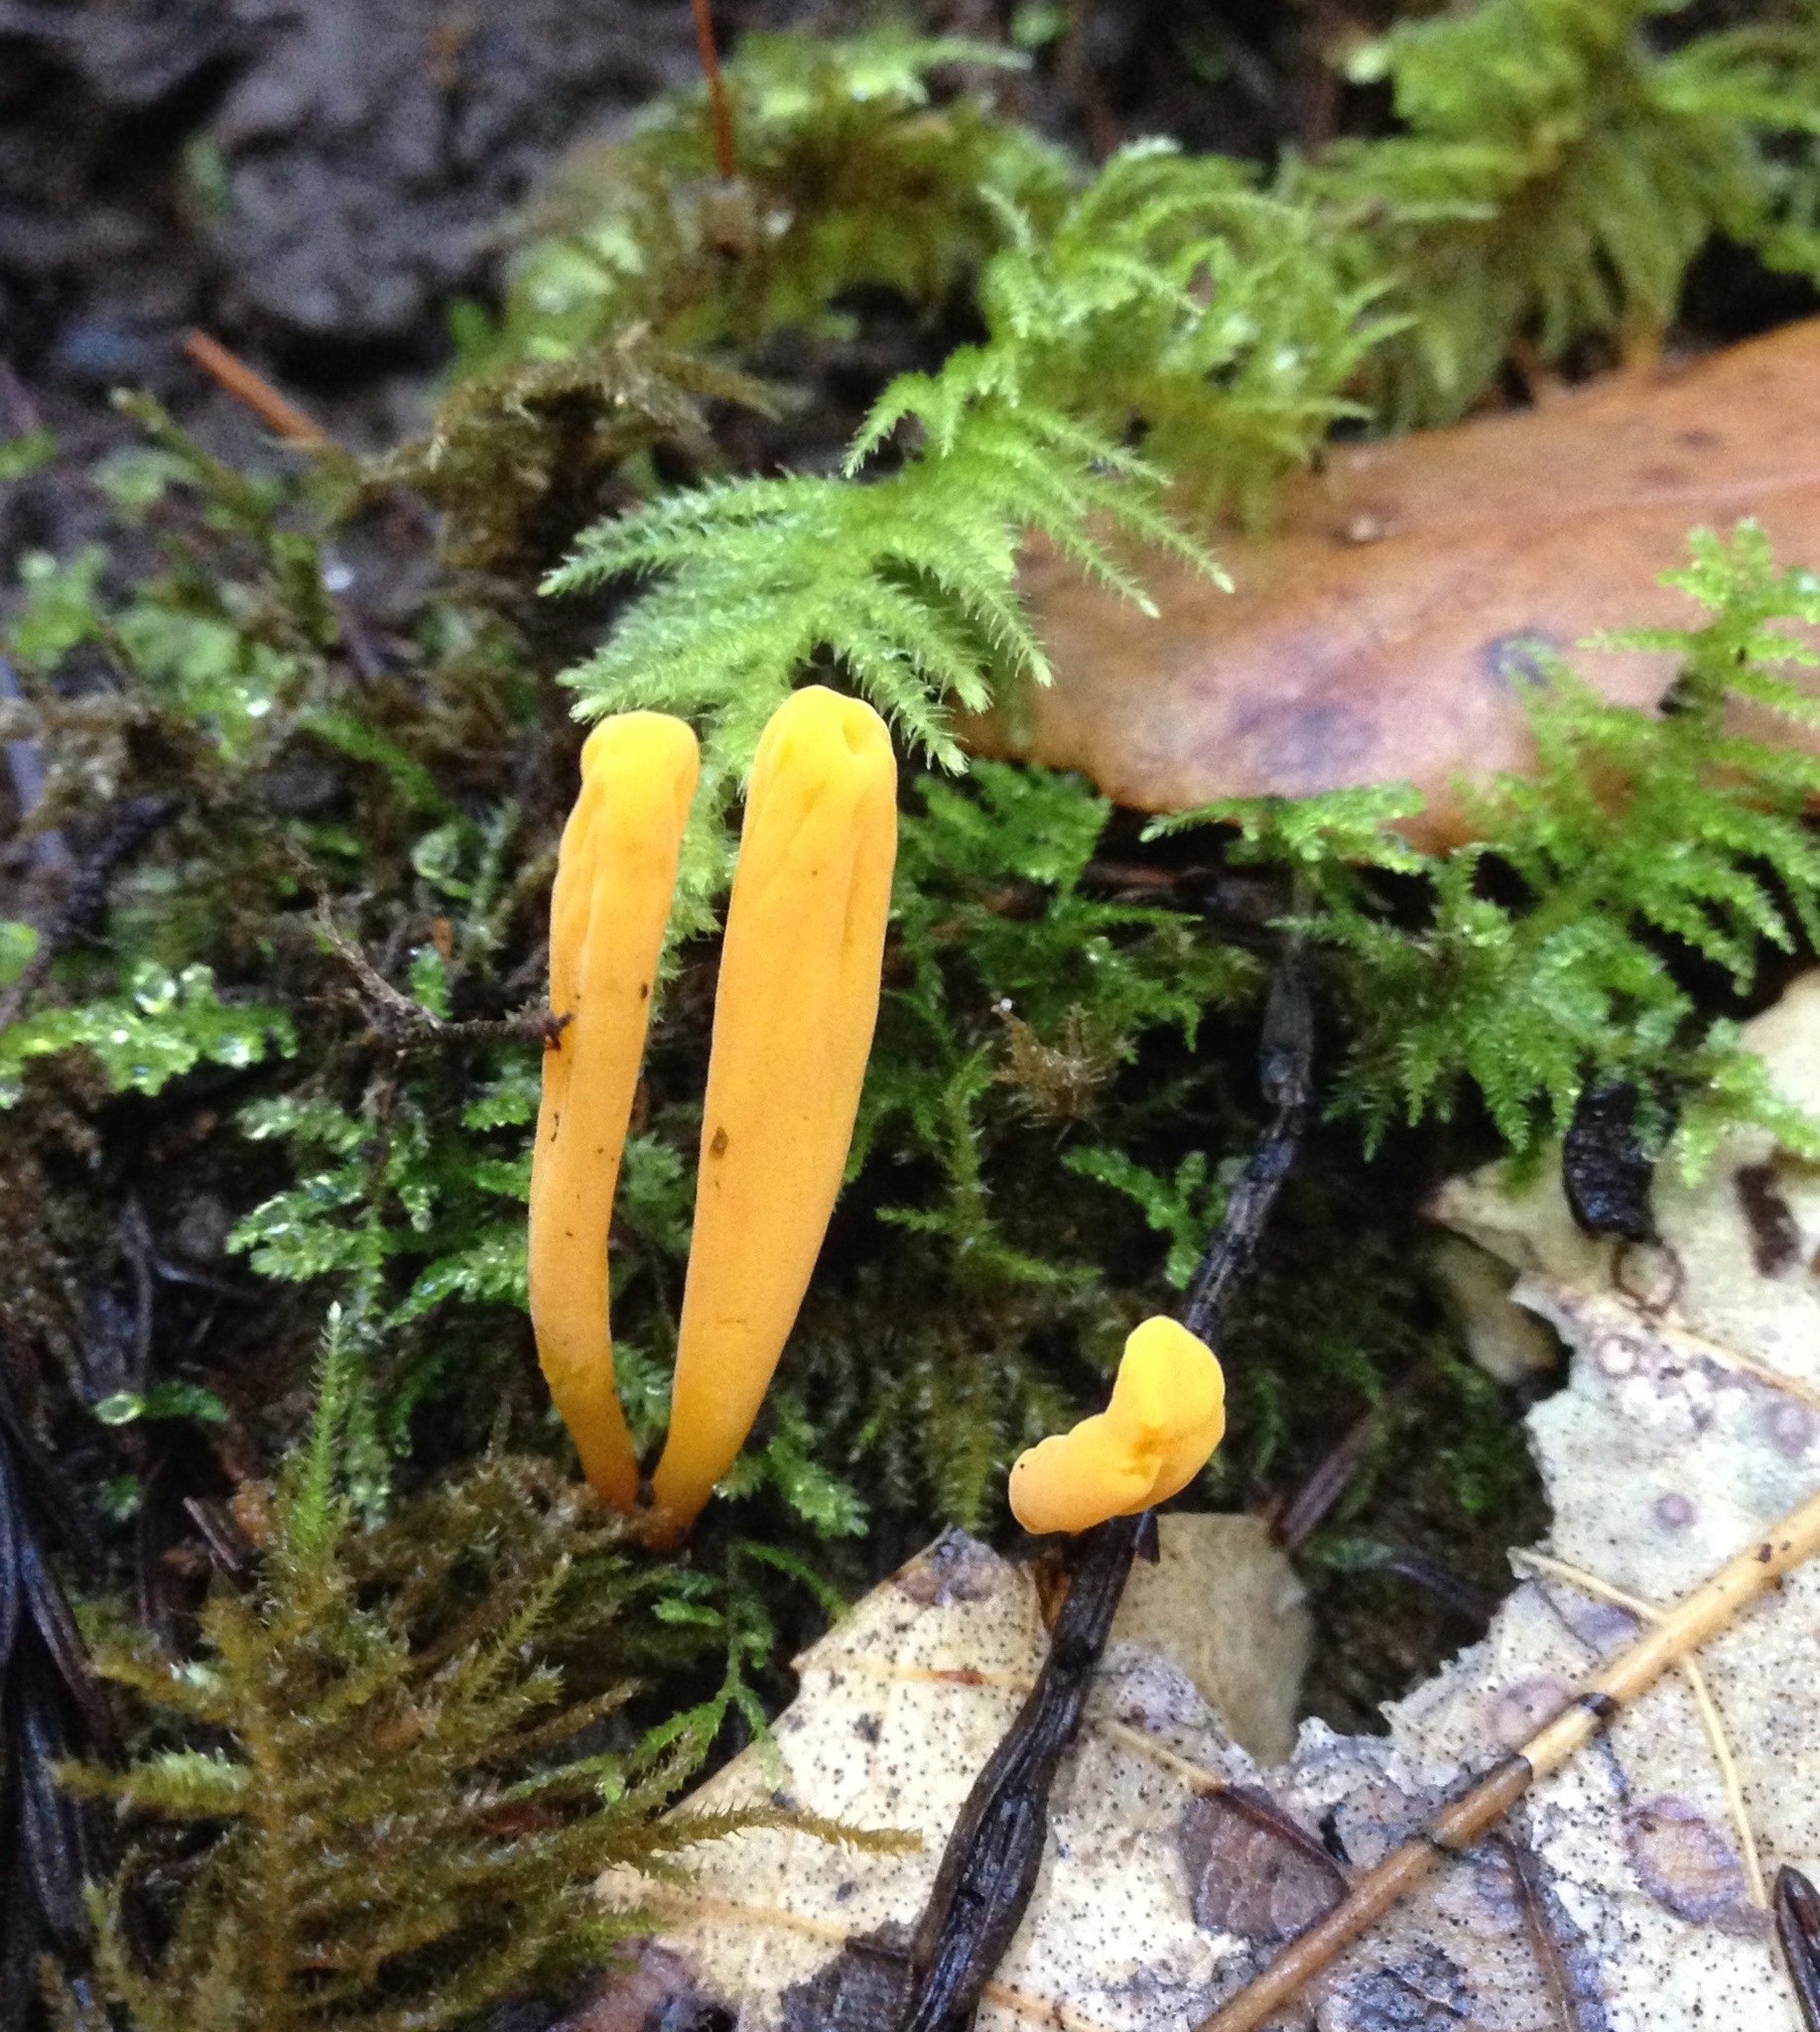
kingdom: Fungi
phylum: Basidiomycota
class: Agaricomycetes
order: Agaricales
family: Clavariaceae
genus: Clavulinopsis
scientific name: Clavulinopsis laeticolor
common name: Handsome club
